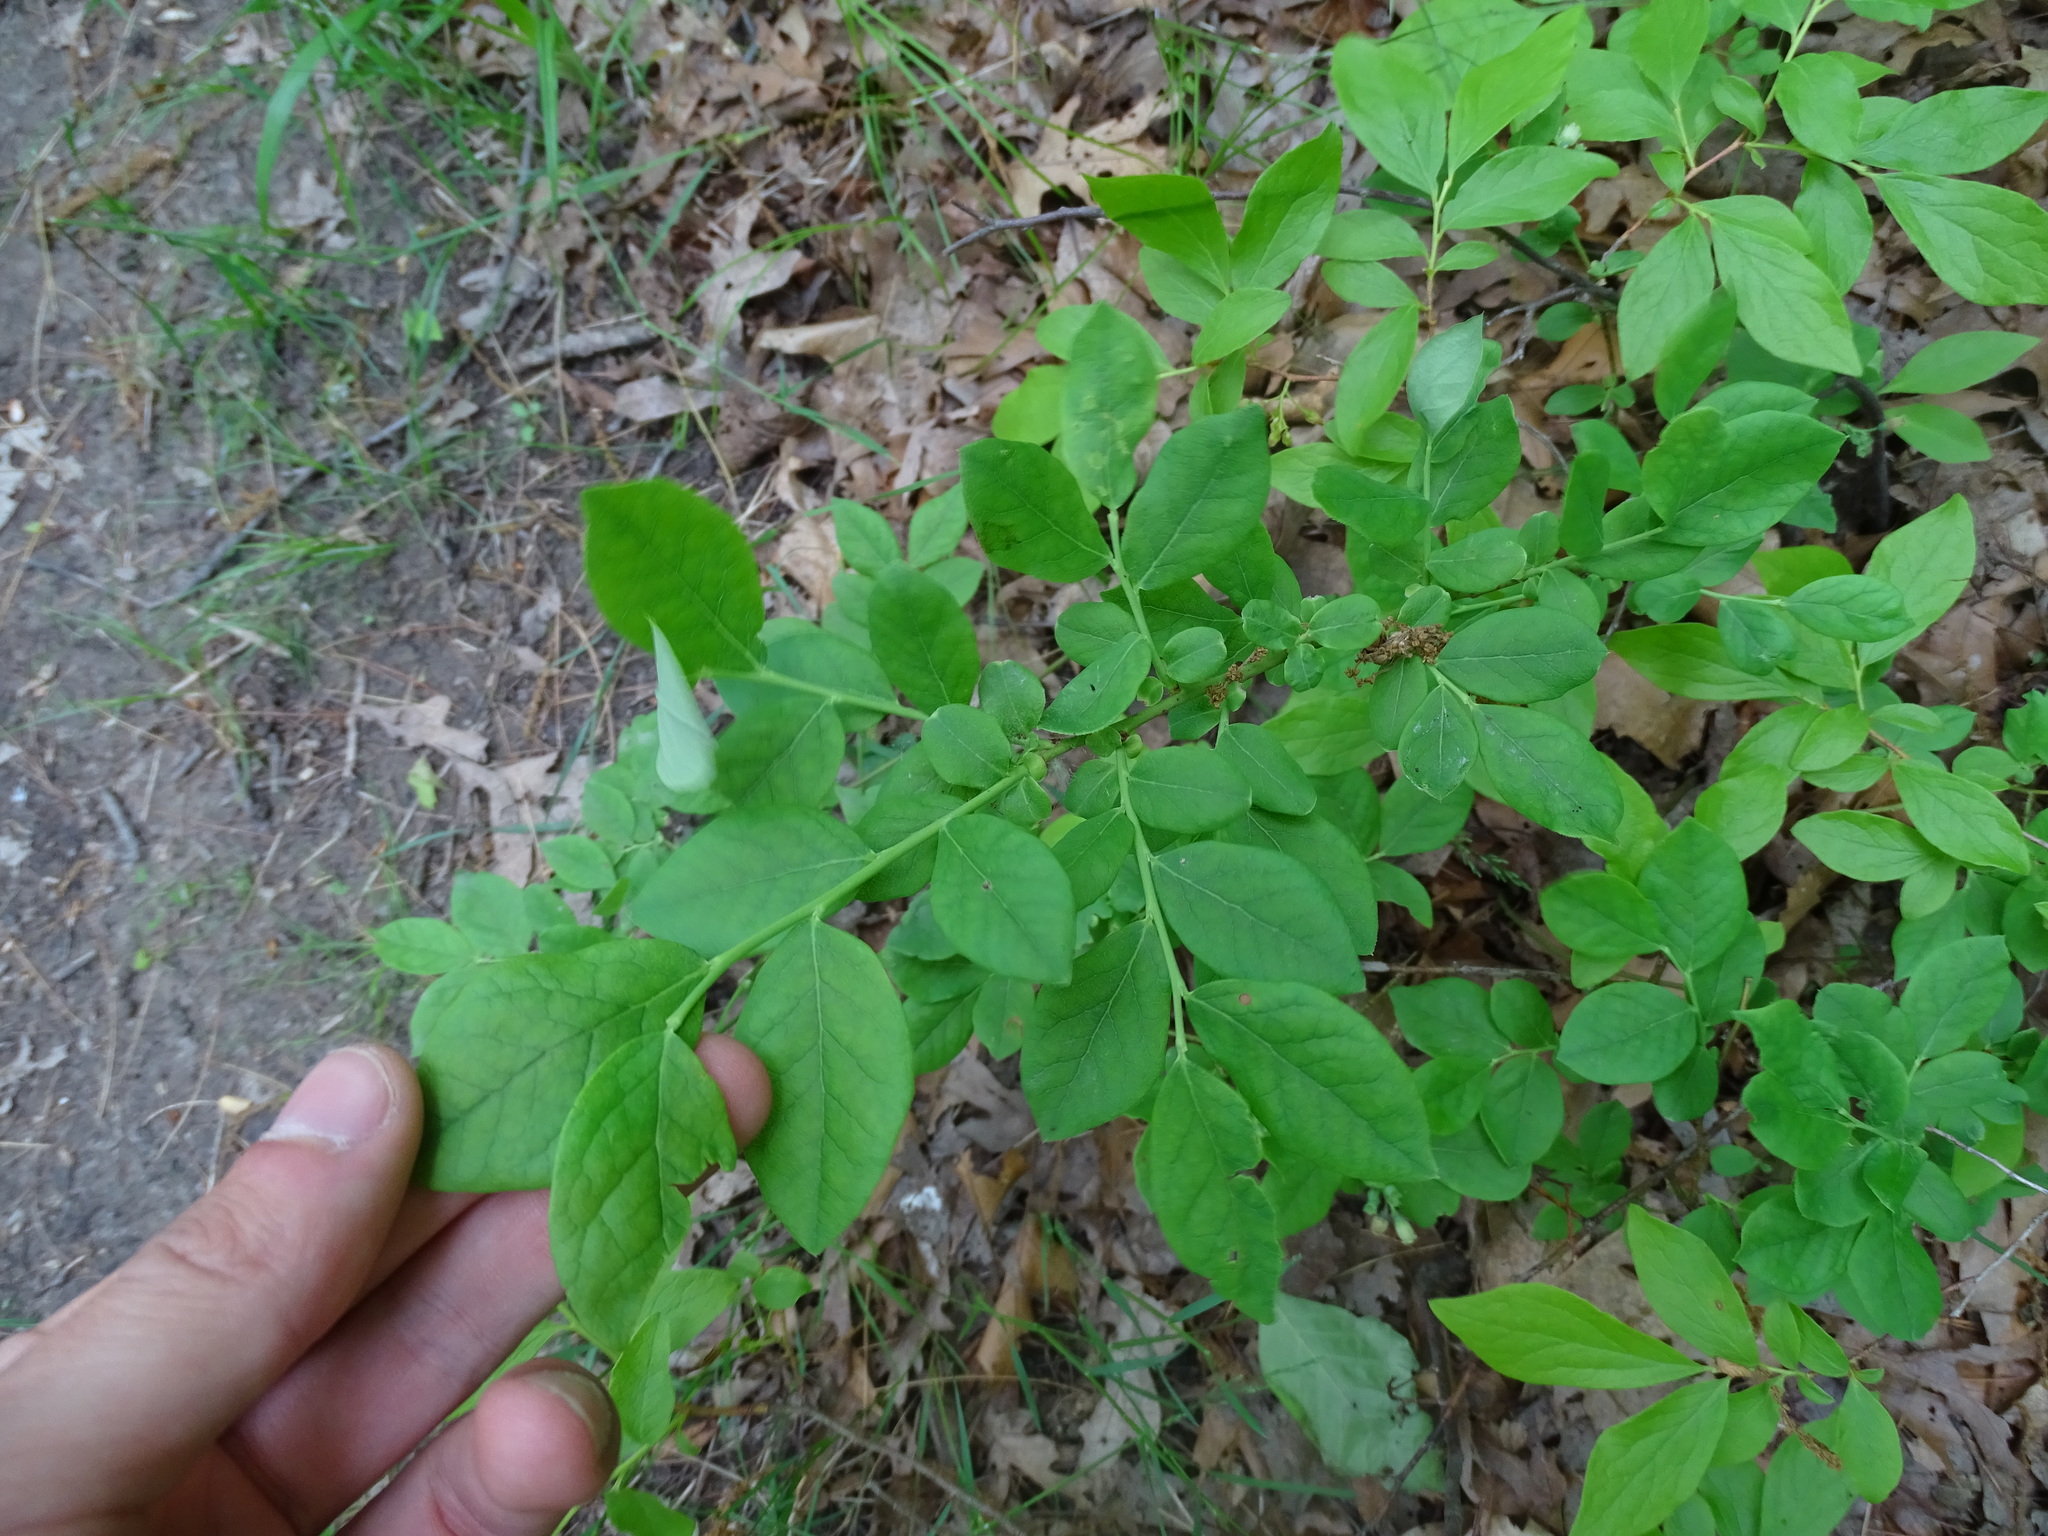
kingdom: Plantae
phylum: Tracheophyta
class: Magnoliopsida
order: Ericales
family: Ericaceae
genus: Vaccinium
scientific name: Vaccinium pallidum
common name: Blue ridge blueberry
